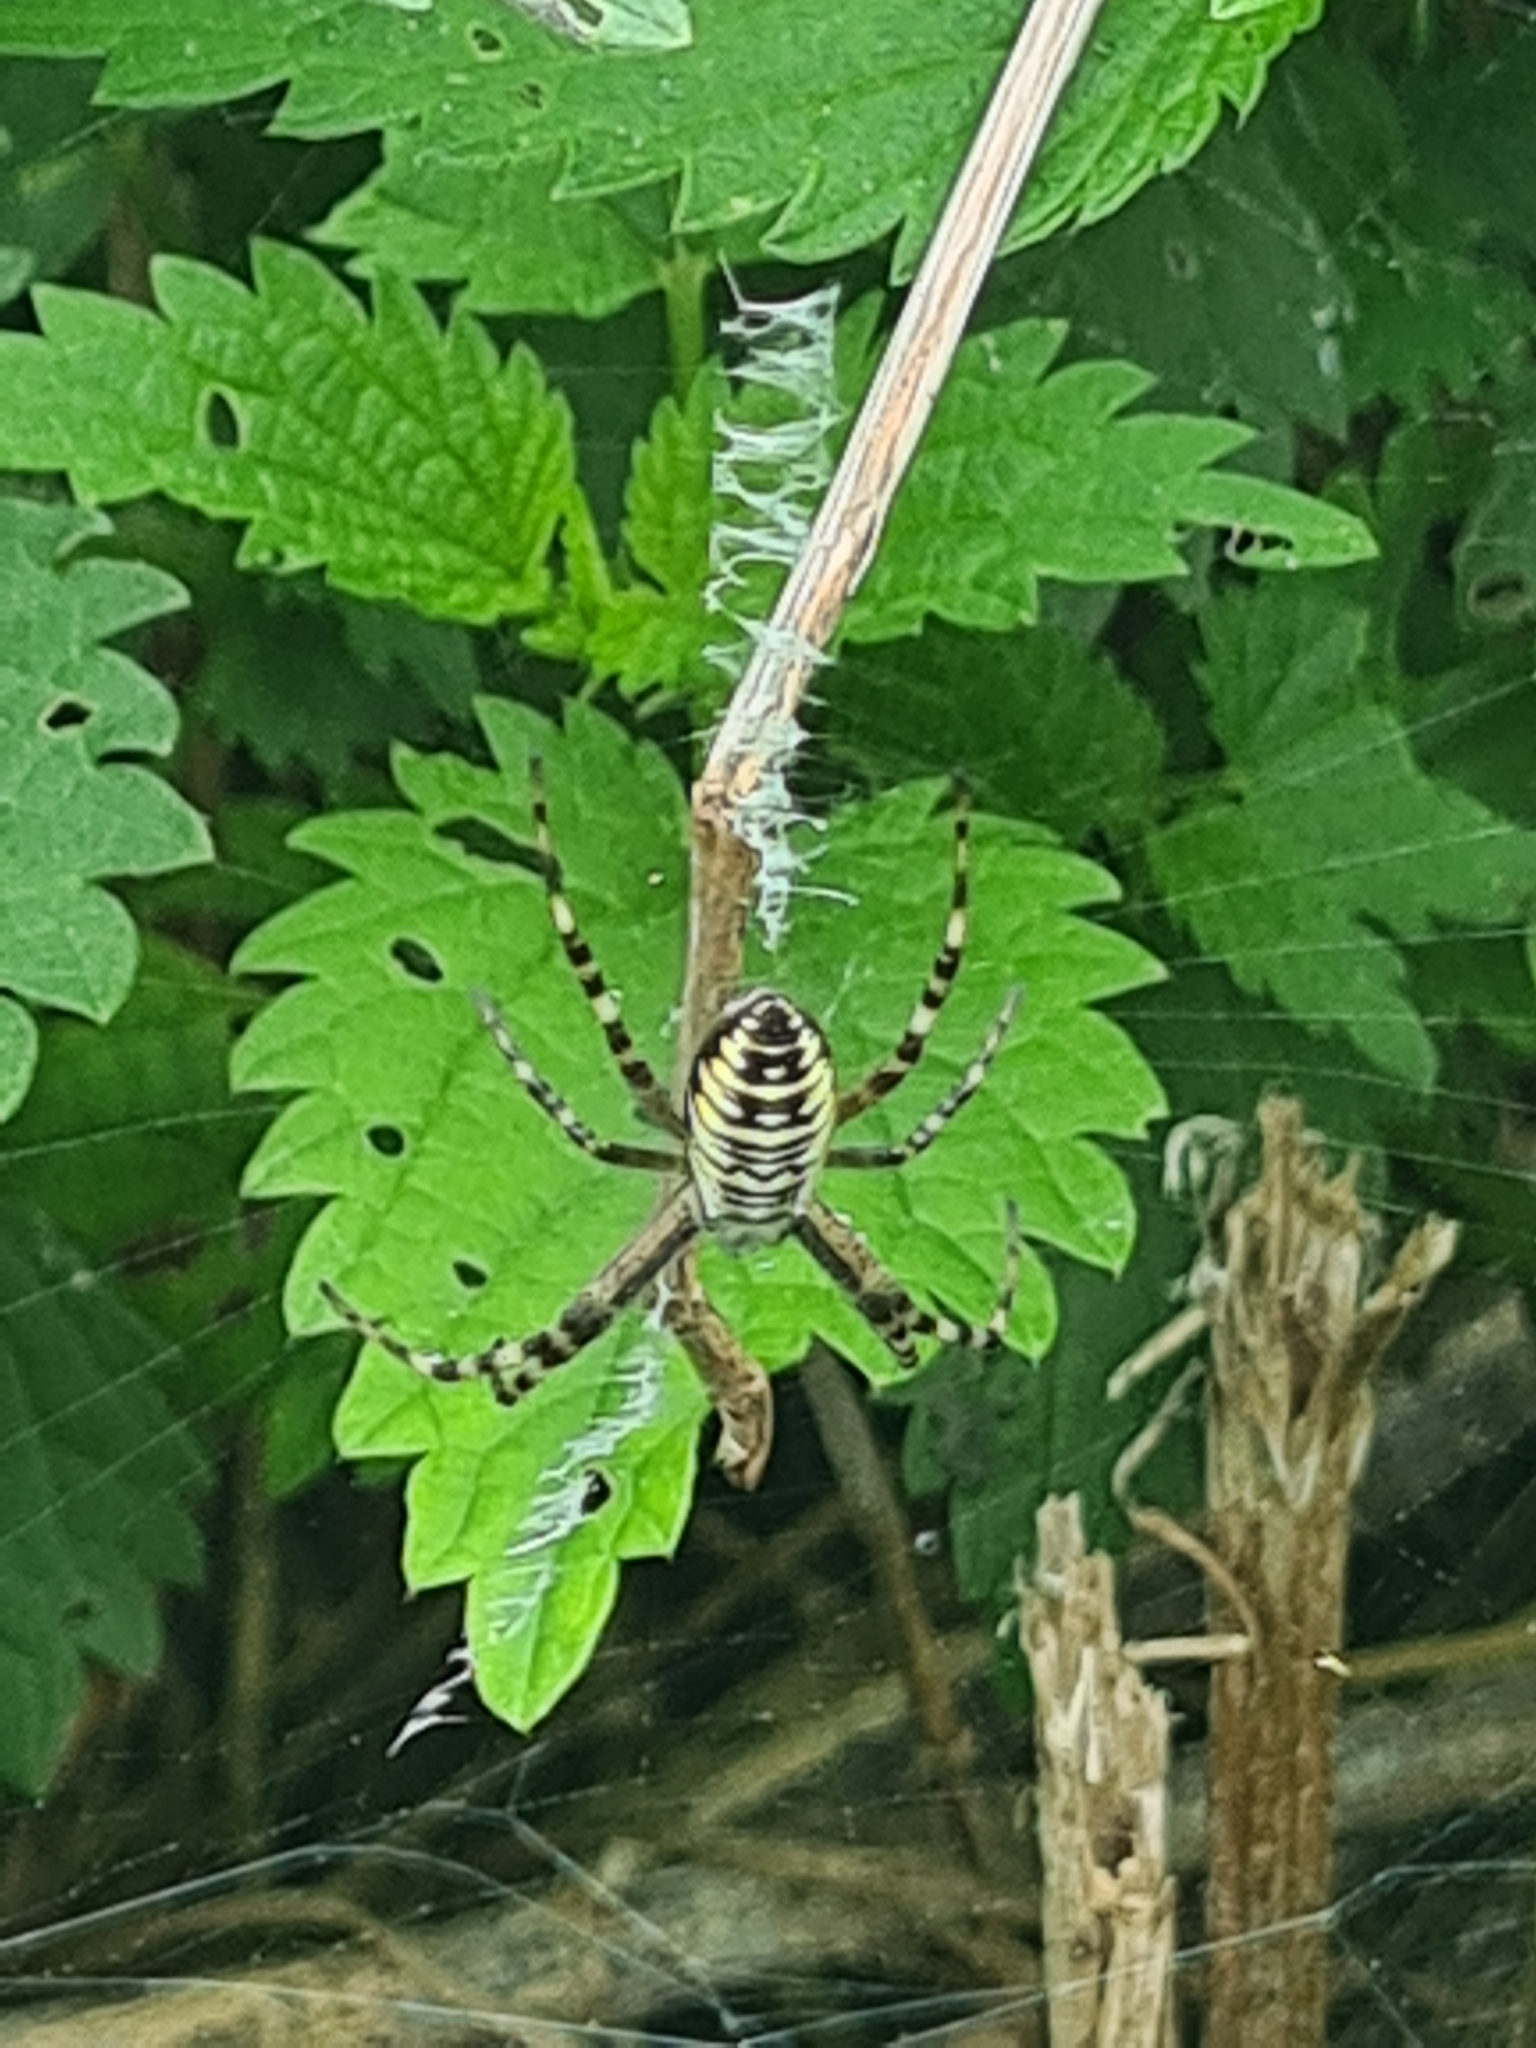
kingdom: Animalia
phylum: Arthropoda
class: Arachnida
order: Araneae
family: Araneidae
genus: Argiope
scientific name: Argiope bruennichi
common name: Wasp spider
